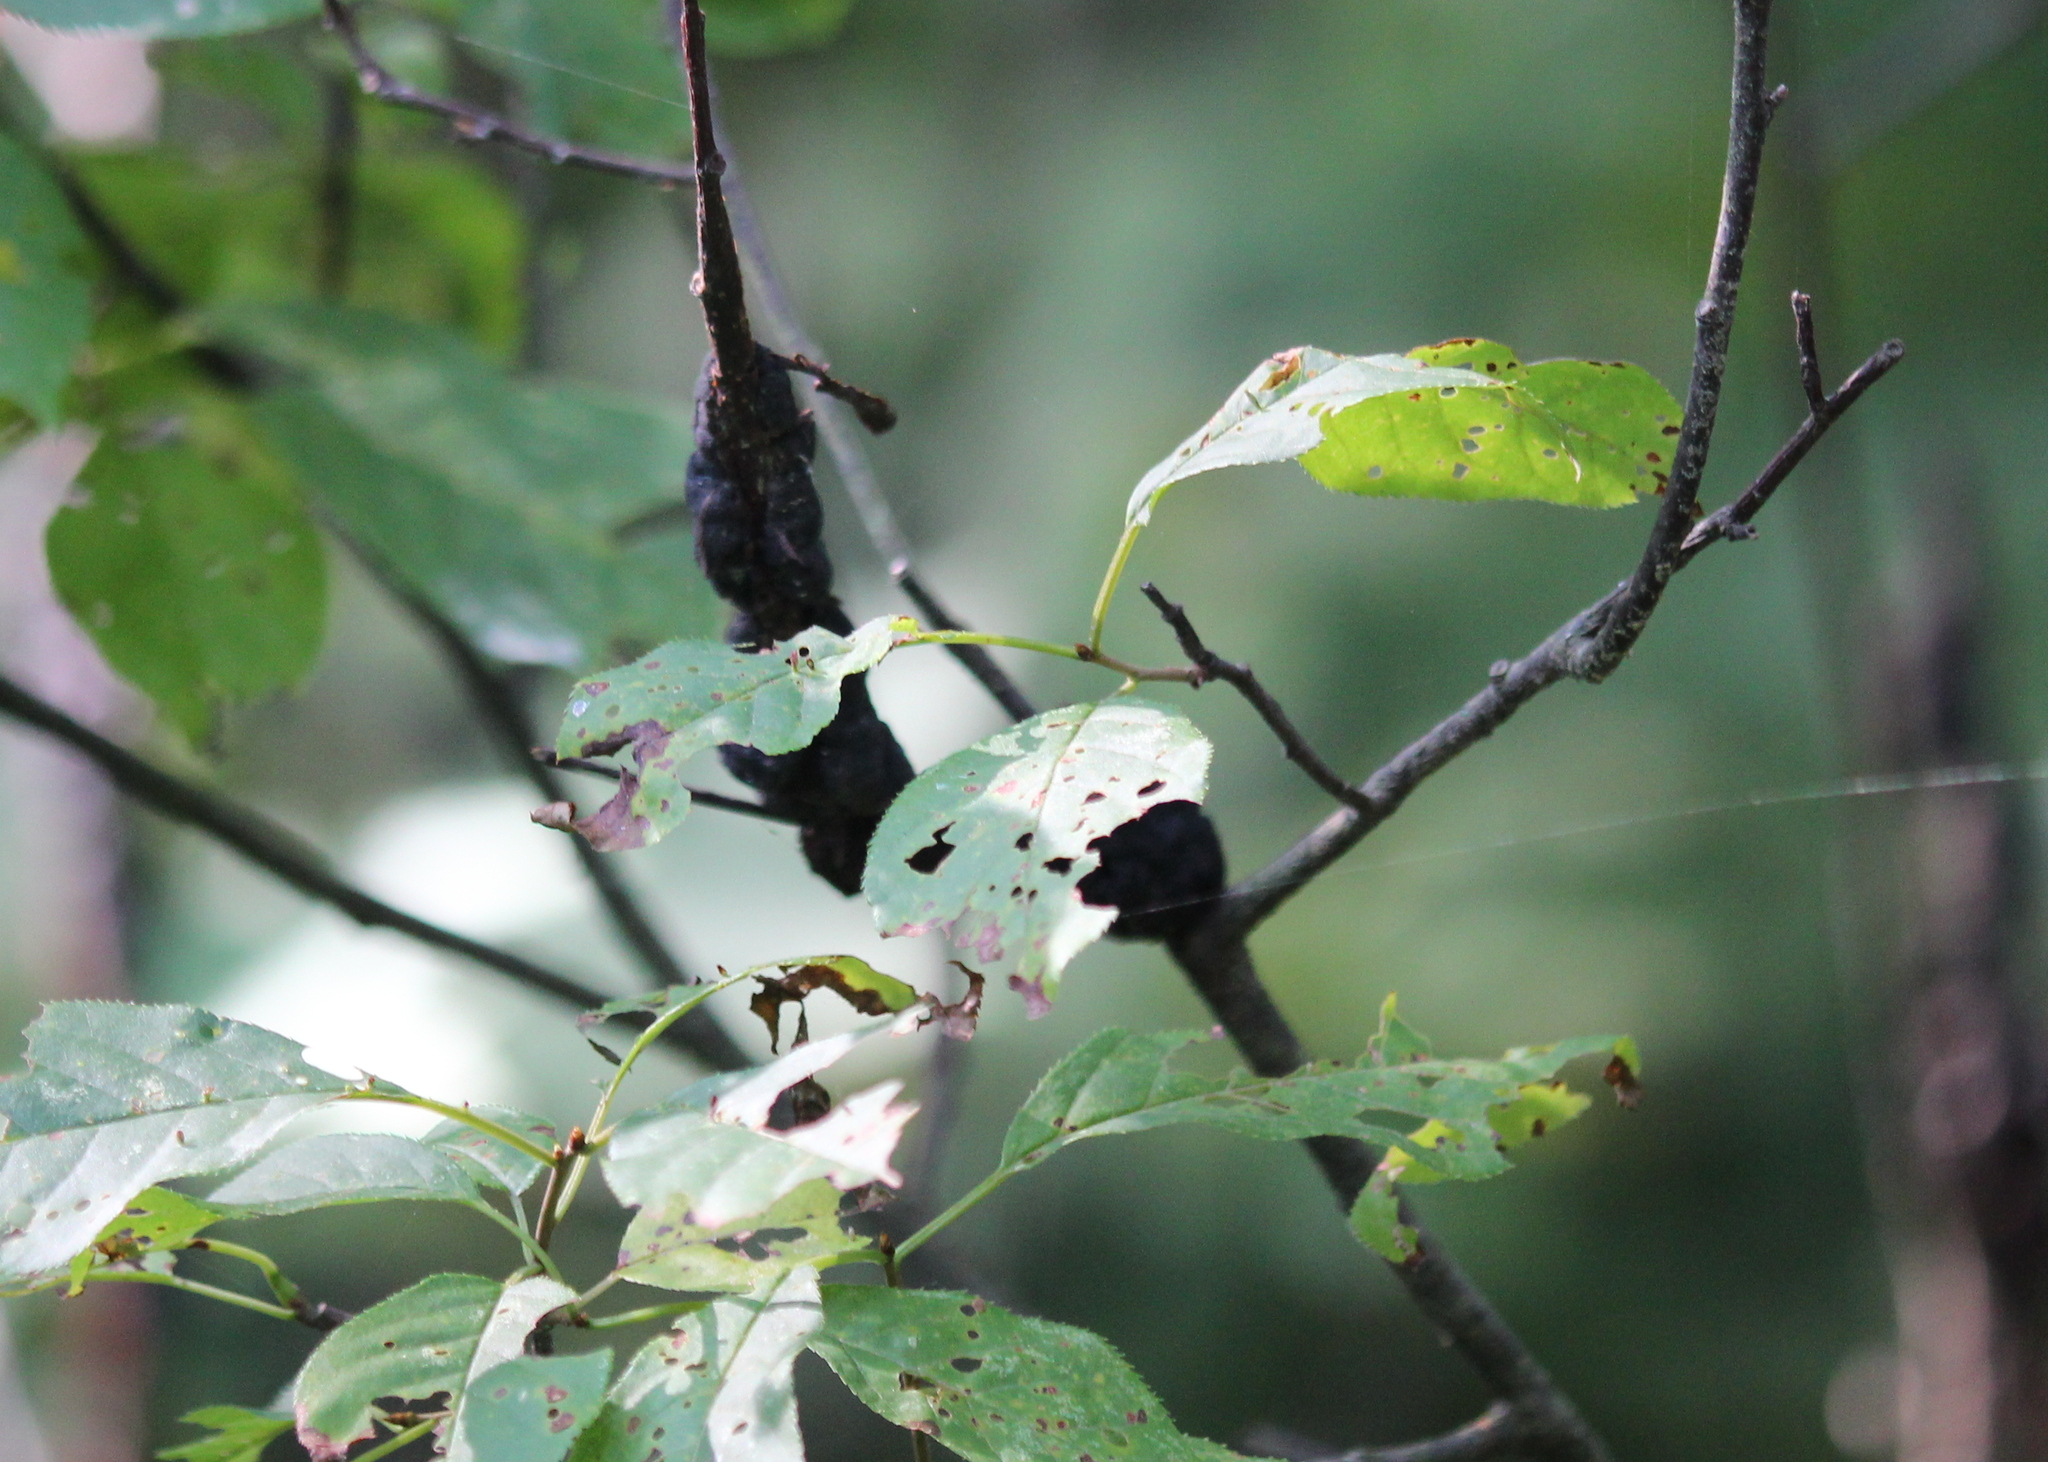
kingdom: Fungi
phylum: Ascomycota
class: Dothideomycetes
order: Venturiales
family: Venturiaceae
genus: Apiosporina
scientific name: Apiosporina morbosa
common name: Black knot
